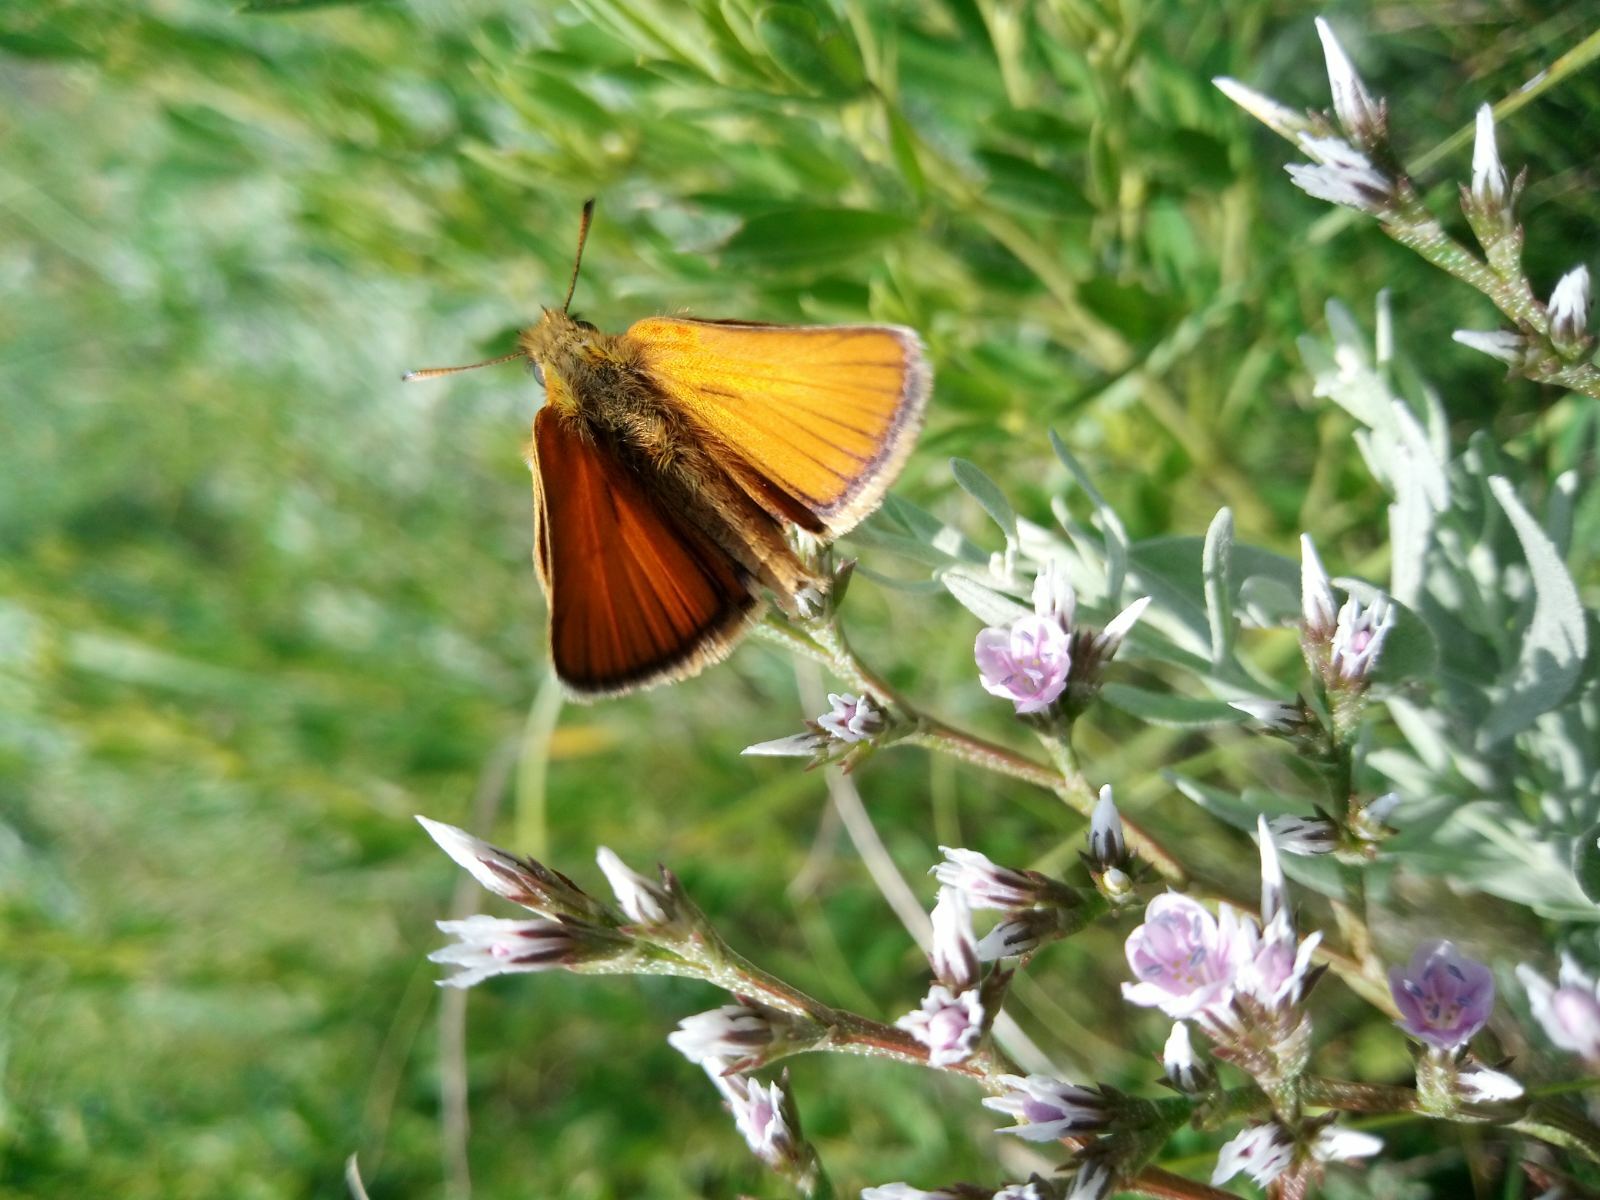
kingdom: Animalia
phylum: Arthropoda
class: Insecta
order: Lepidoptera
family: Hesperiidae
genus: Thymelicus
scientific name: Thymelicus lineola
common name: Essex skipper
